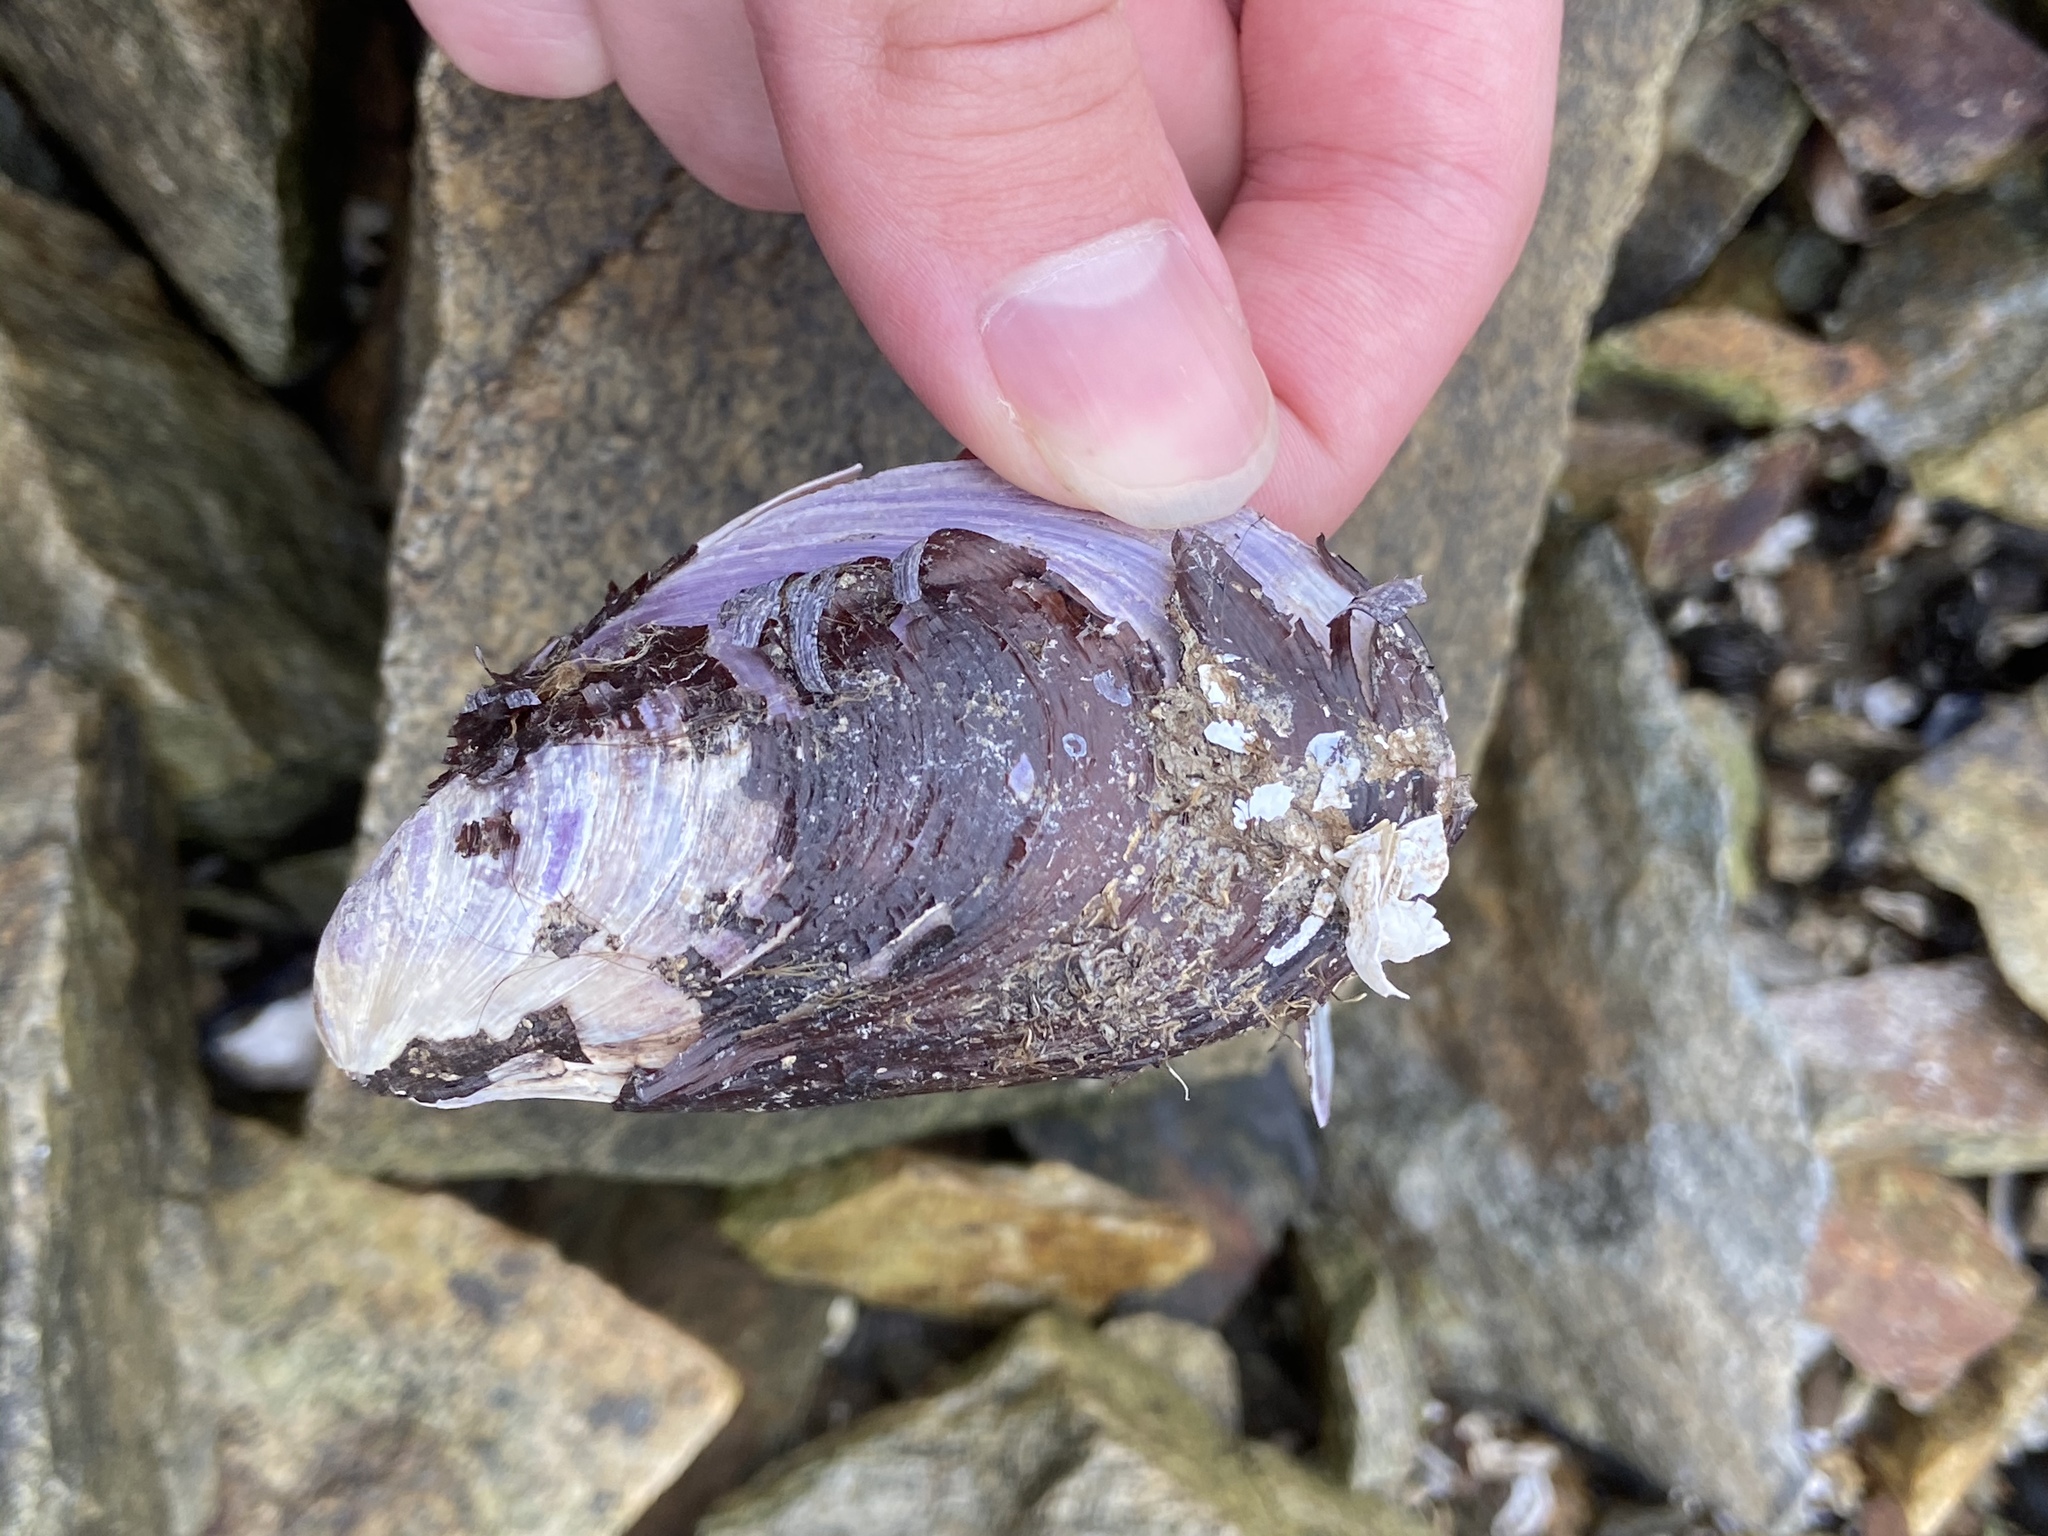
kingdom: Animalia
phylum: Mollusca
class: Bivalvia
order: Mytilida
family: Mytilidae
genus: Modiolus
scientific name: Modiolus modiolus
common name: Horse-mussel
